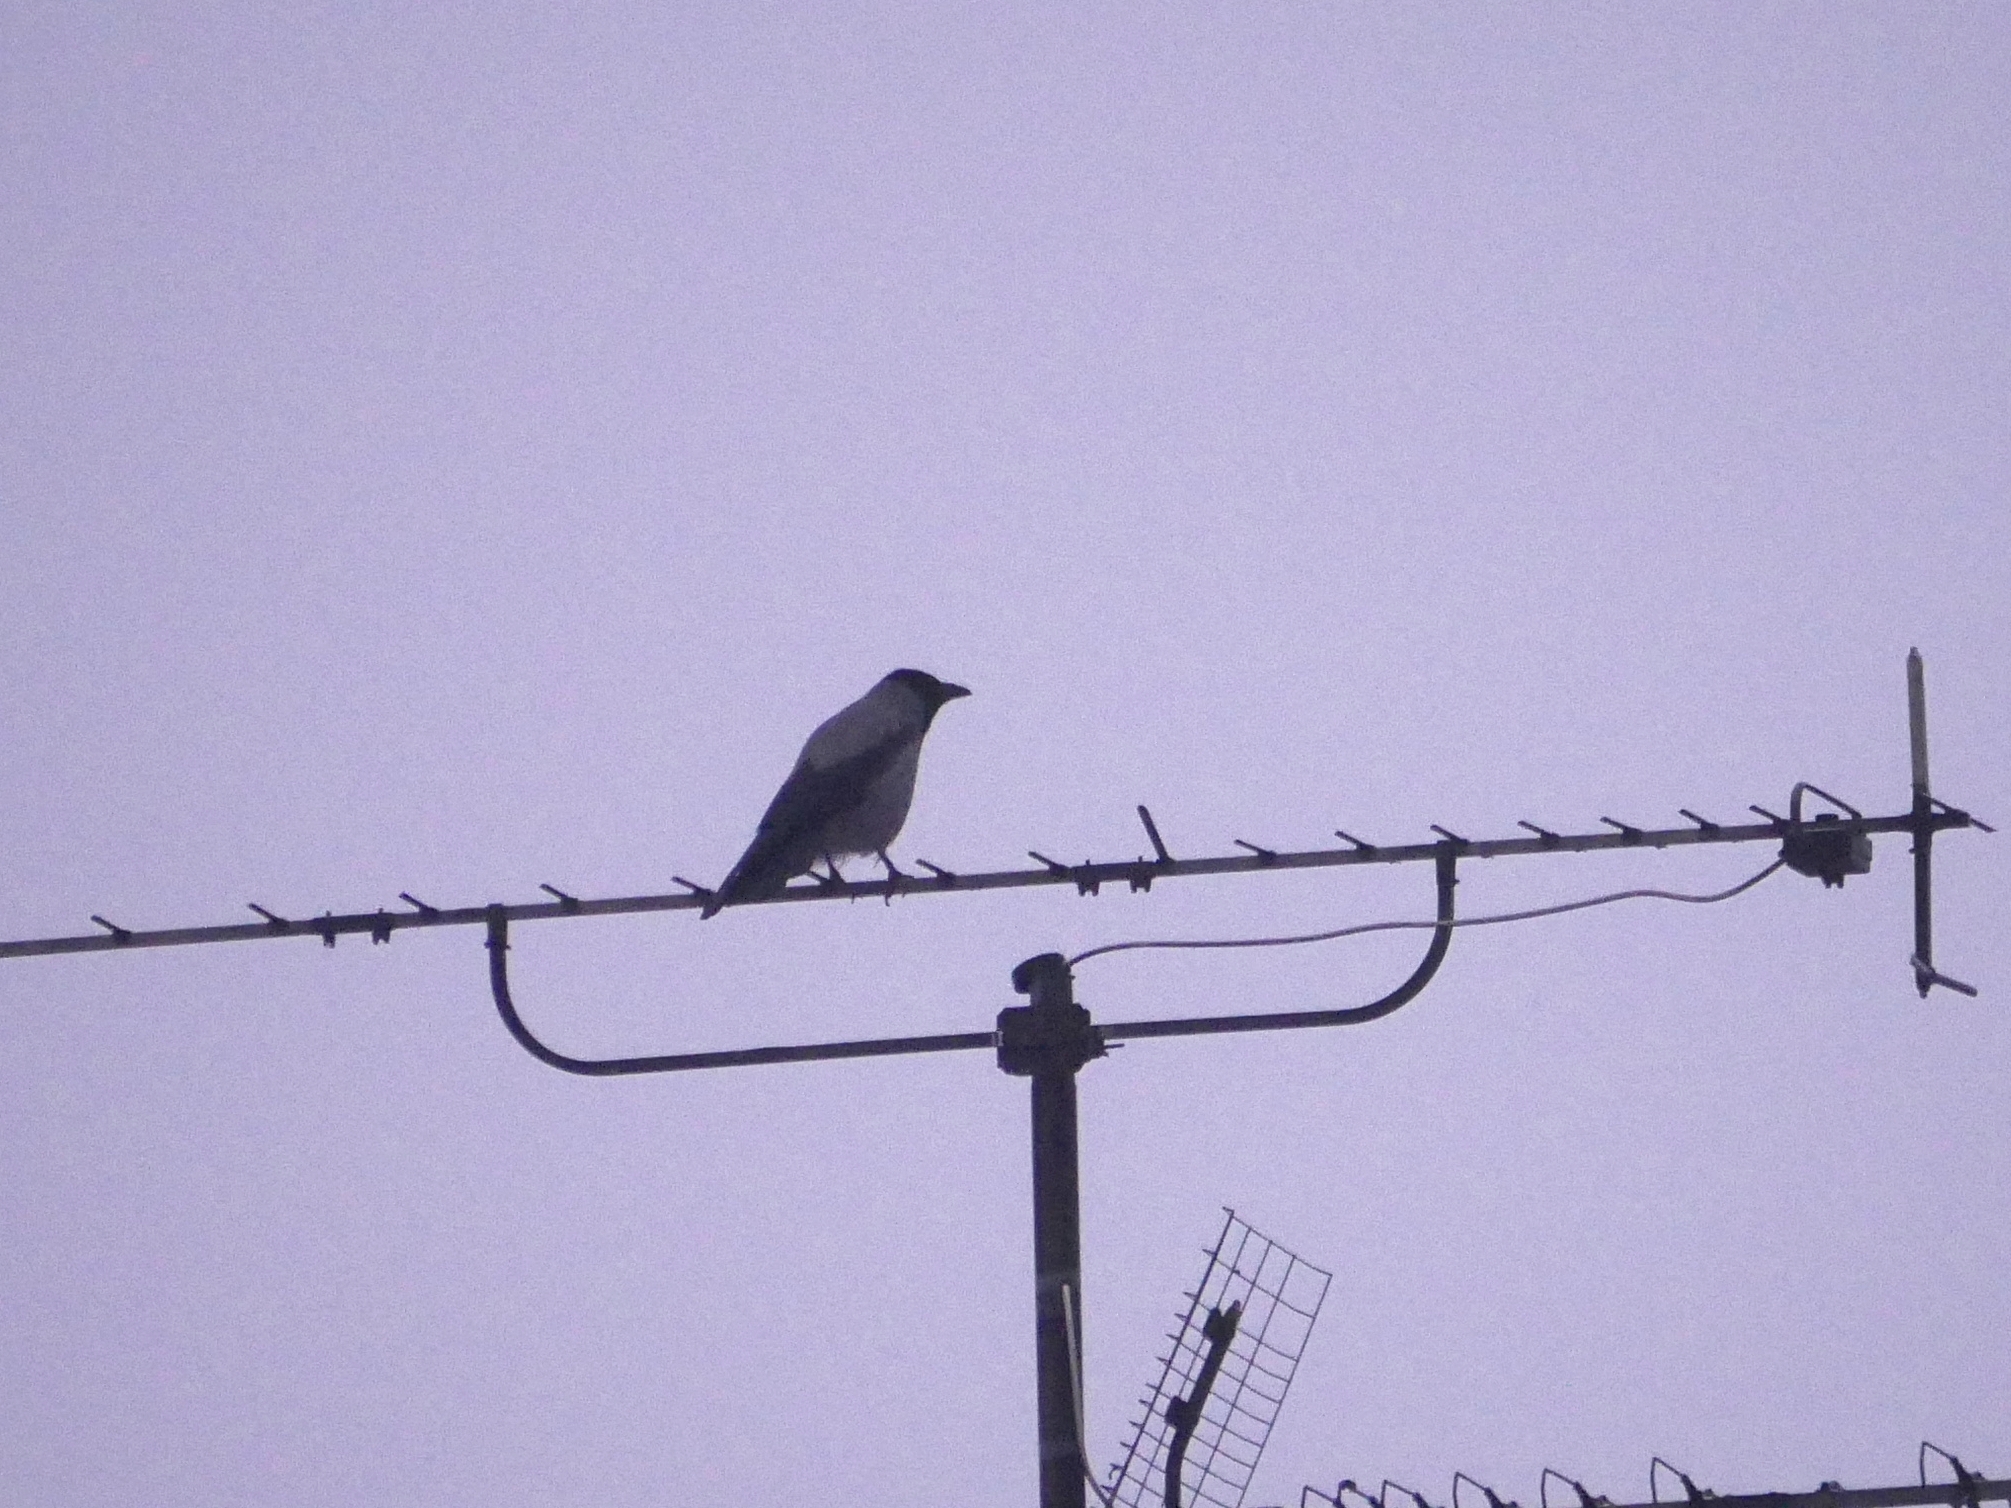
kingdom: Animalia
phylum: Chordata
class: Aves
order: Passeriformes
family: Corvidae
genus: Corvus
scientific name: Corvus cornix
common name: Hooded crow
